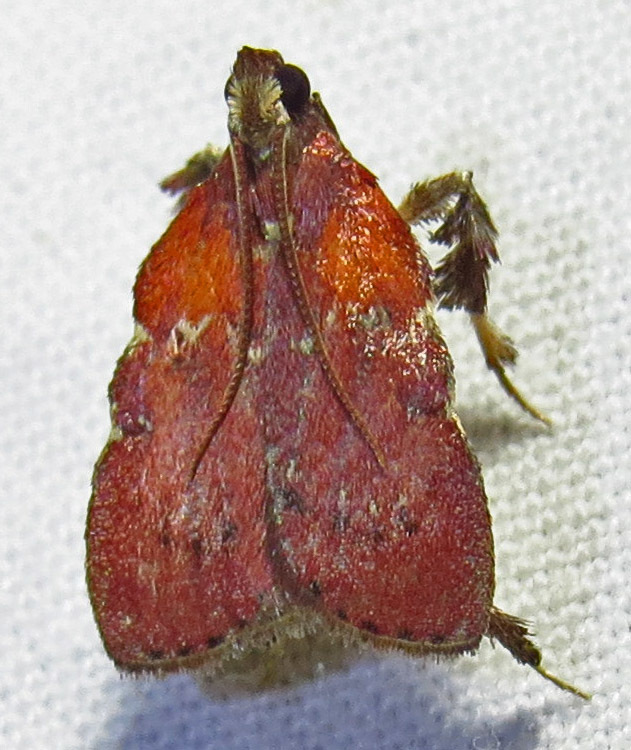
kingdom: Animalia
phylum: Arthropoda
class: Insecta
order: Lepidoptera
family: Pyralidae
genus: Galasa
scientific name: Galasa nigrinodis
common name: Boxwood leaftier moth
